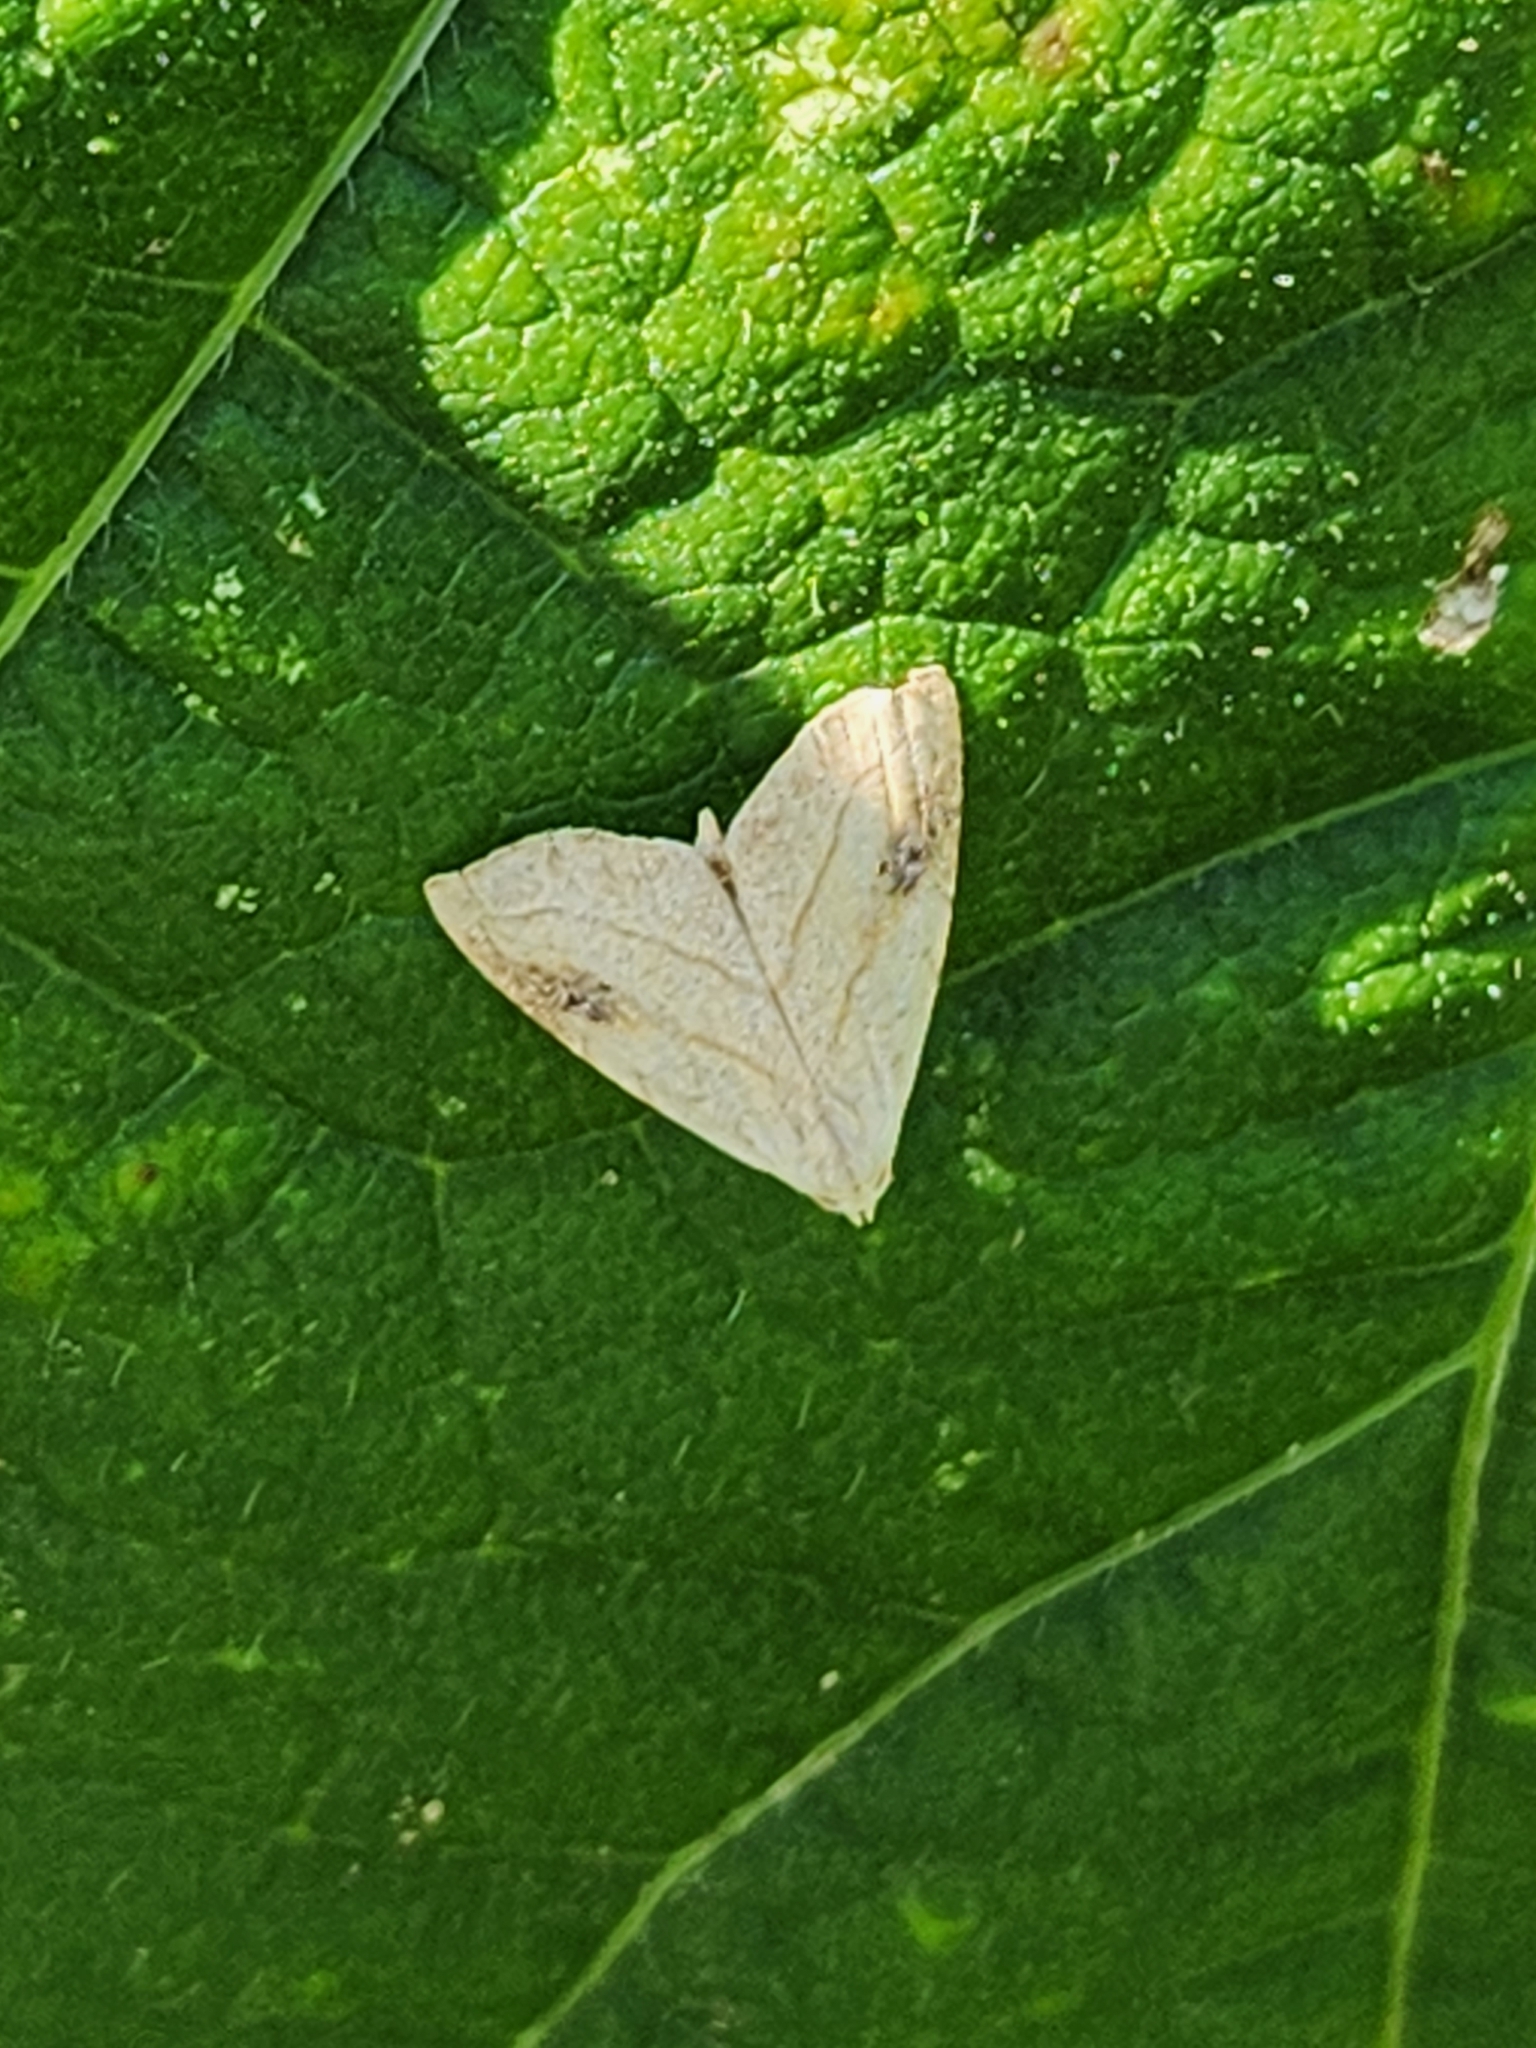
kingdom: Animalia
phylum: Arthropoda
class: Insecta
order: Lepidoptera
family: Erebidae
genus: Rivula
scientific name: Rivula propinqualis
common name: Spotted grass moth
